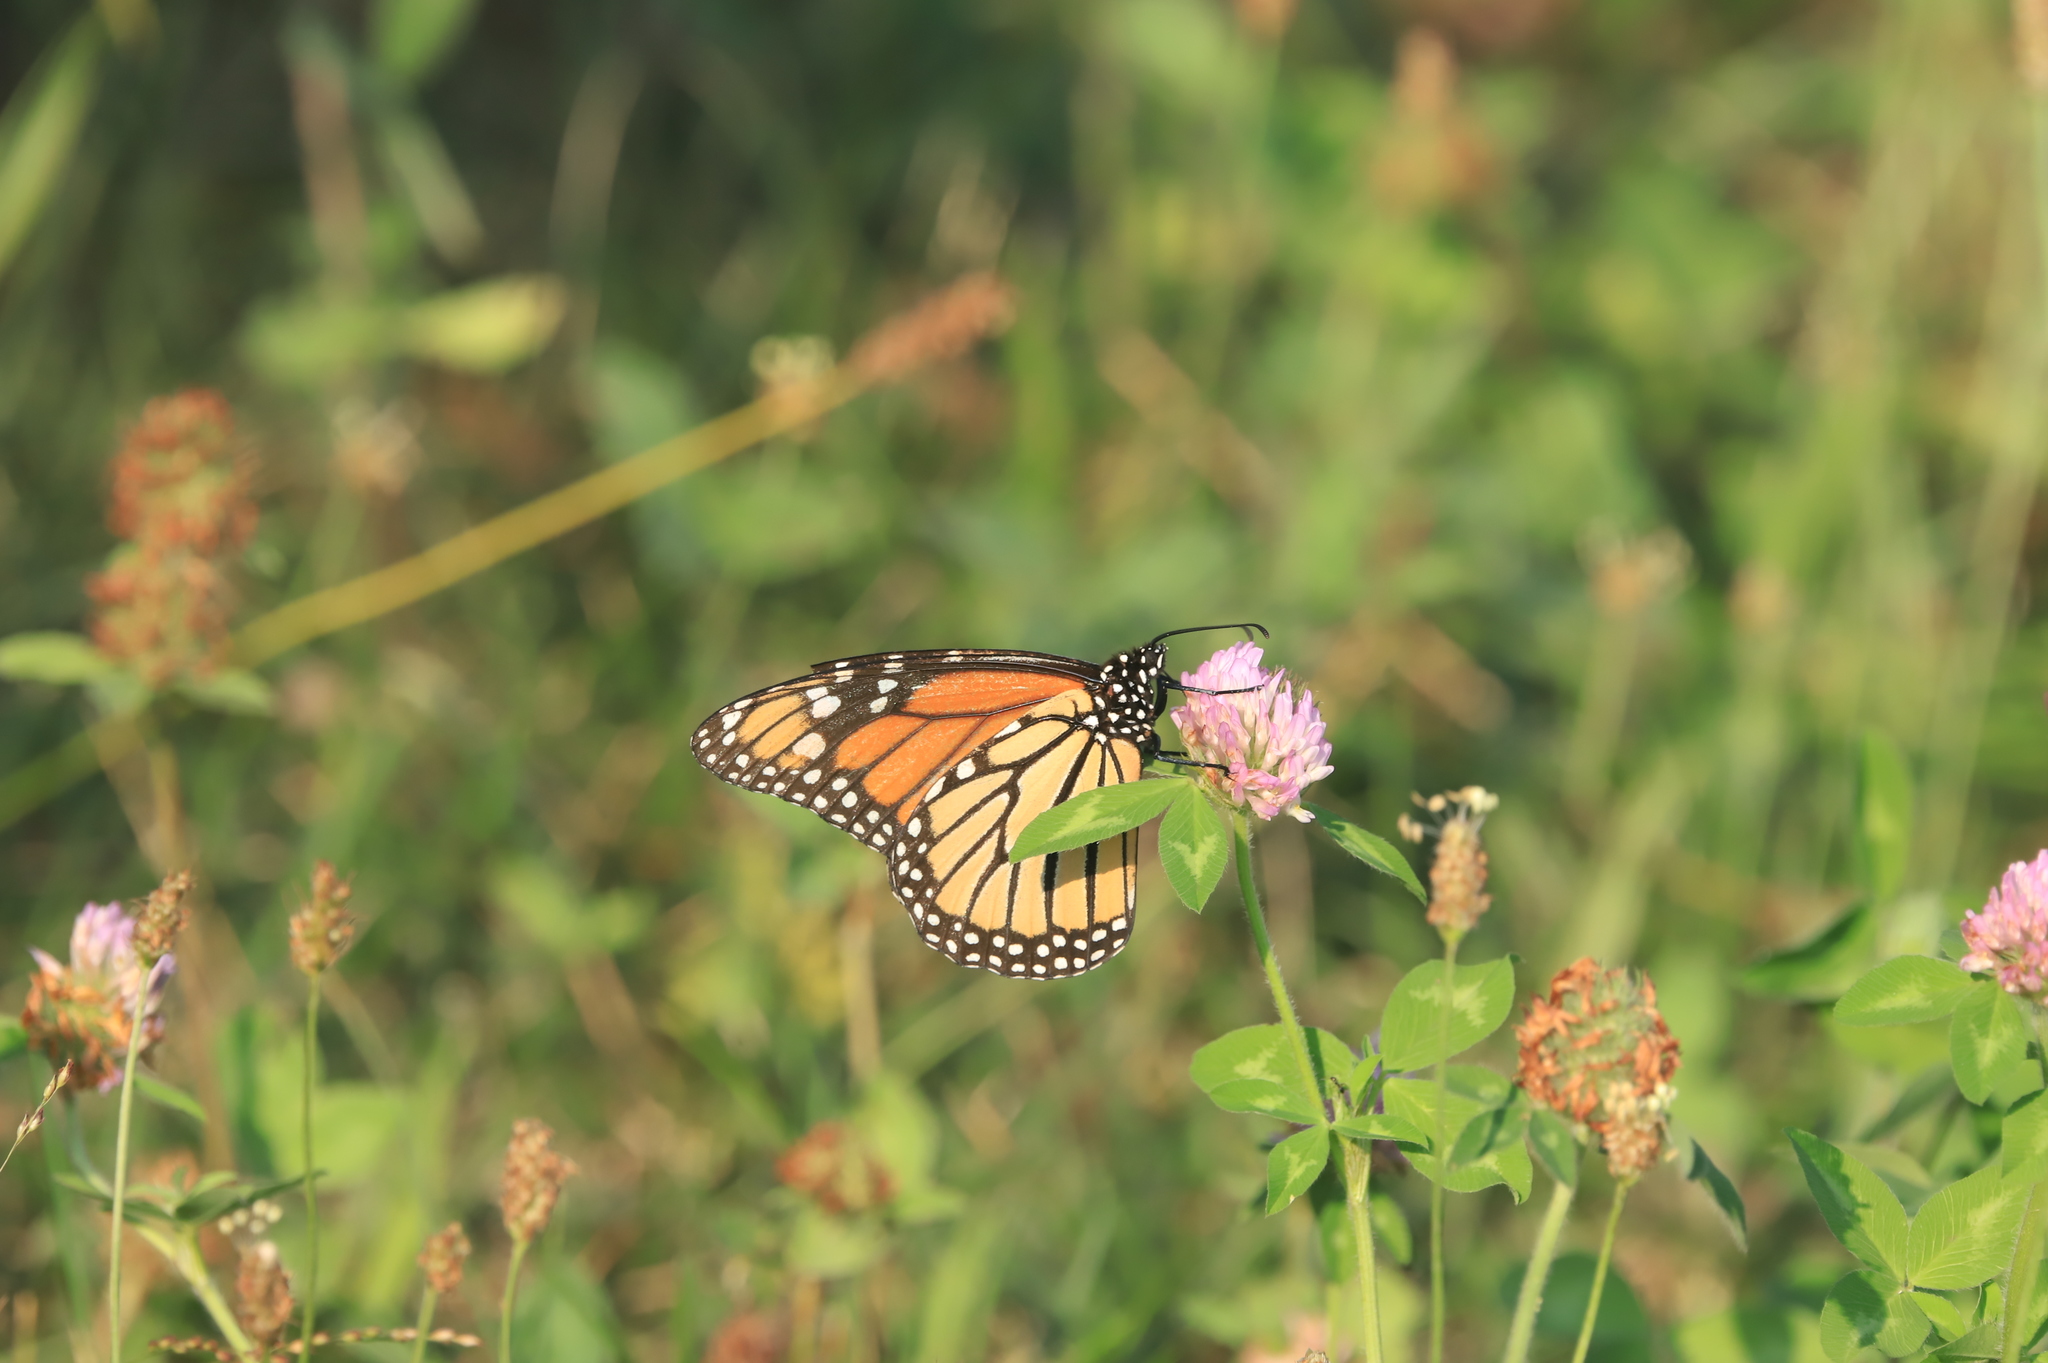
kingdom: Animalia
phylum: Arthropoda
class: Insecta
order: Lepidoptera
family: Nymphalidae
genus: Danaus
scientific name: Danaus plexippus
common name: Monarch
